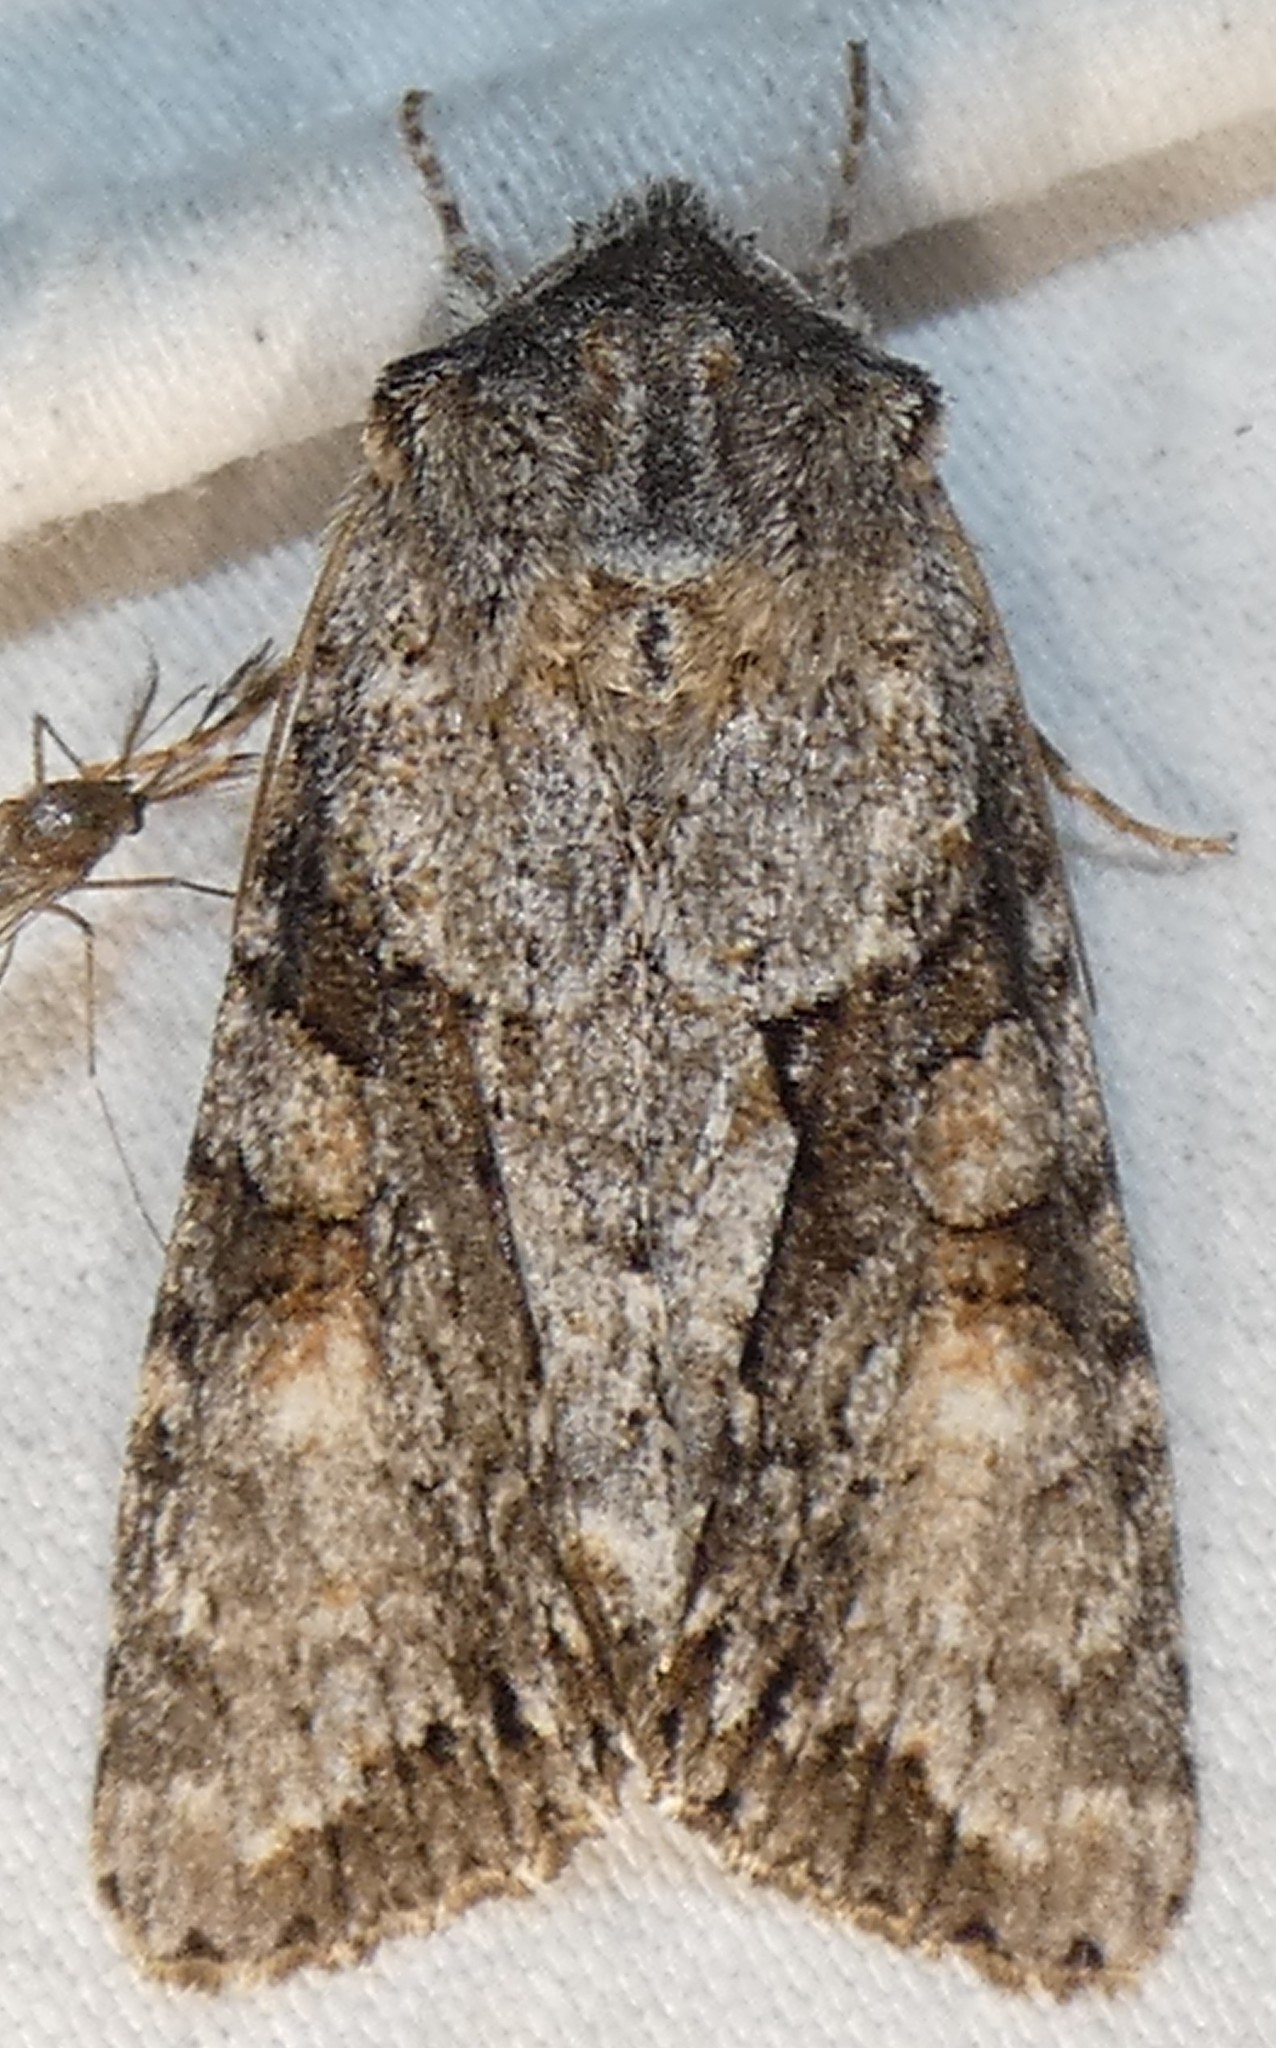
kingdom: Animalia
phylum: Arthropoda
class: Insecta
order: Lepidoptera
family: Noctuidae
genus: Achatia
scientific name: Achatia distincta
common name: Distinct quaker
